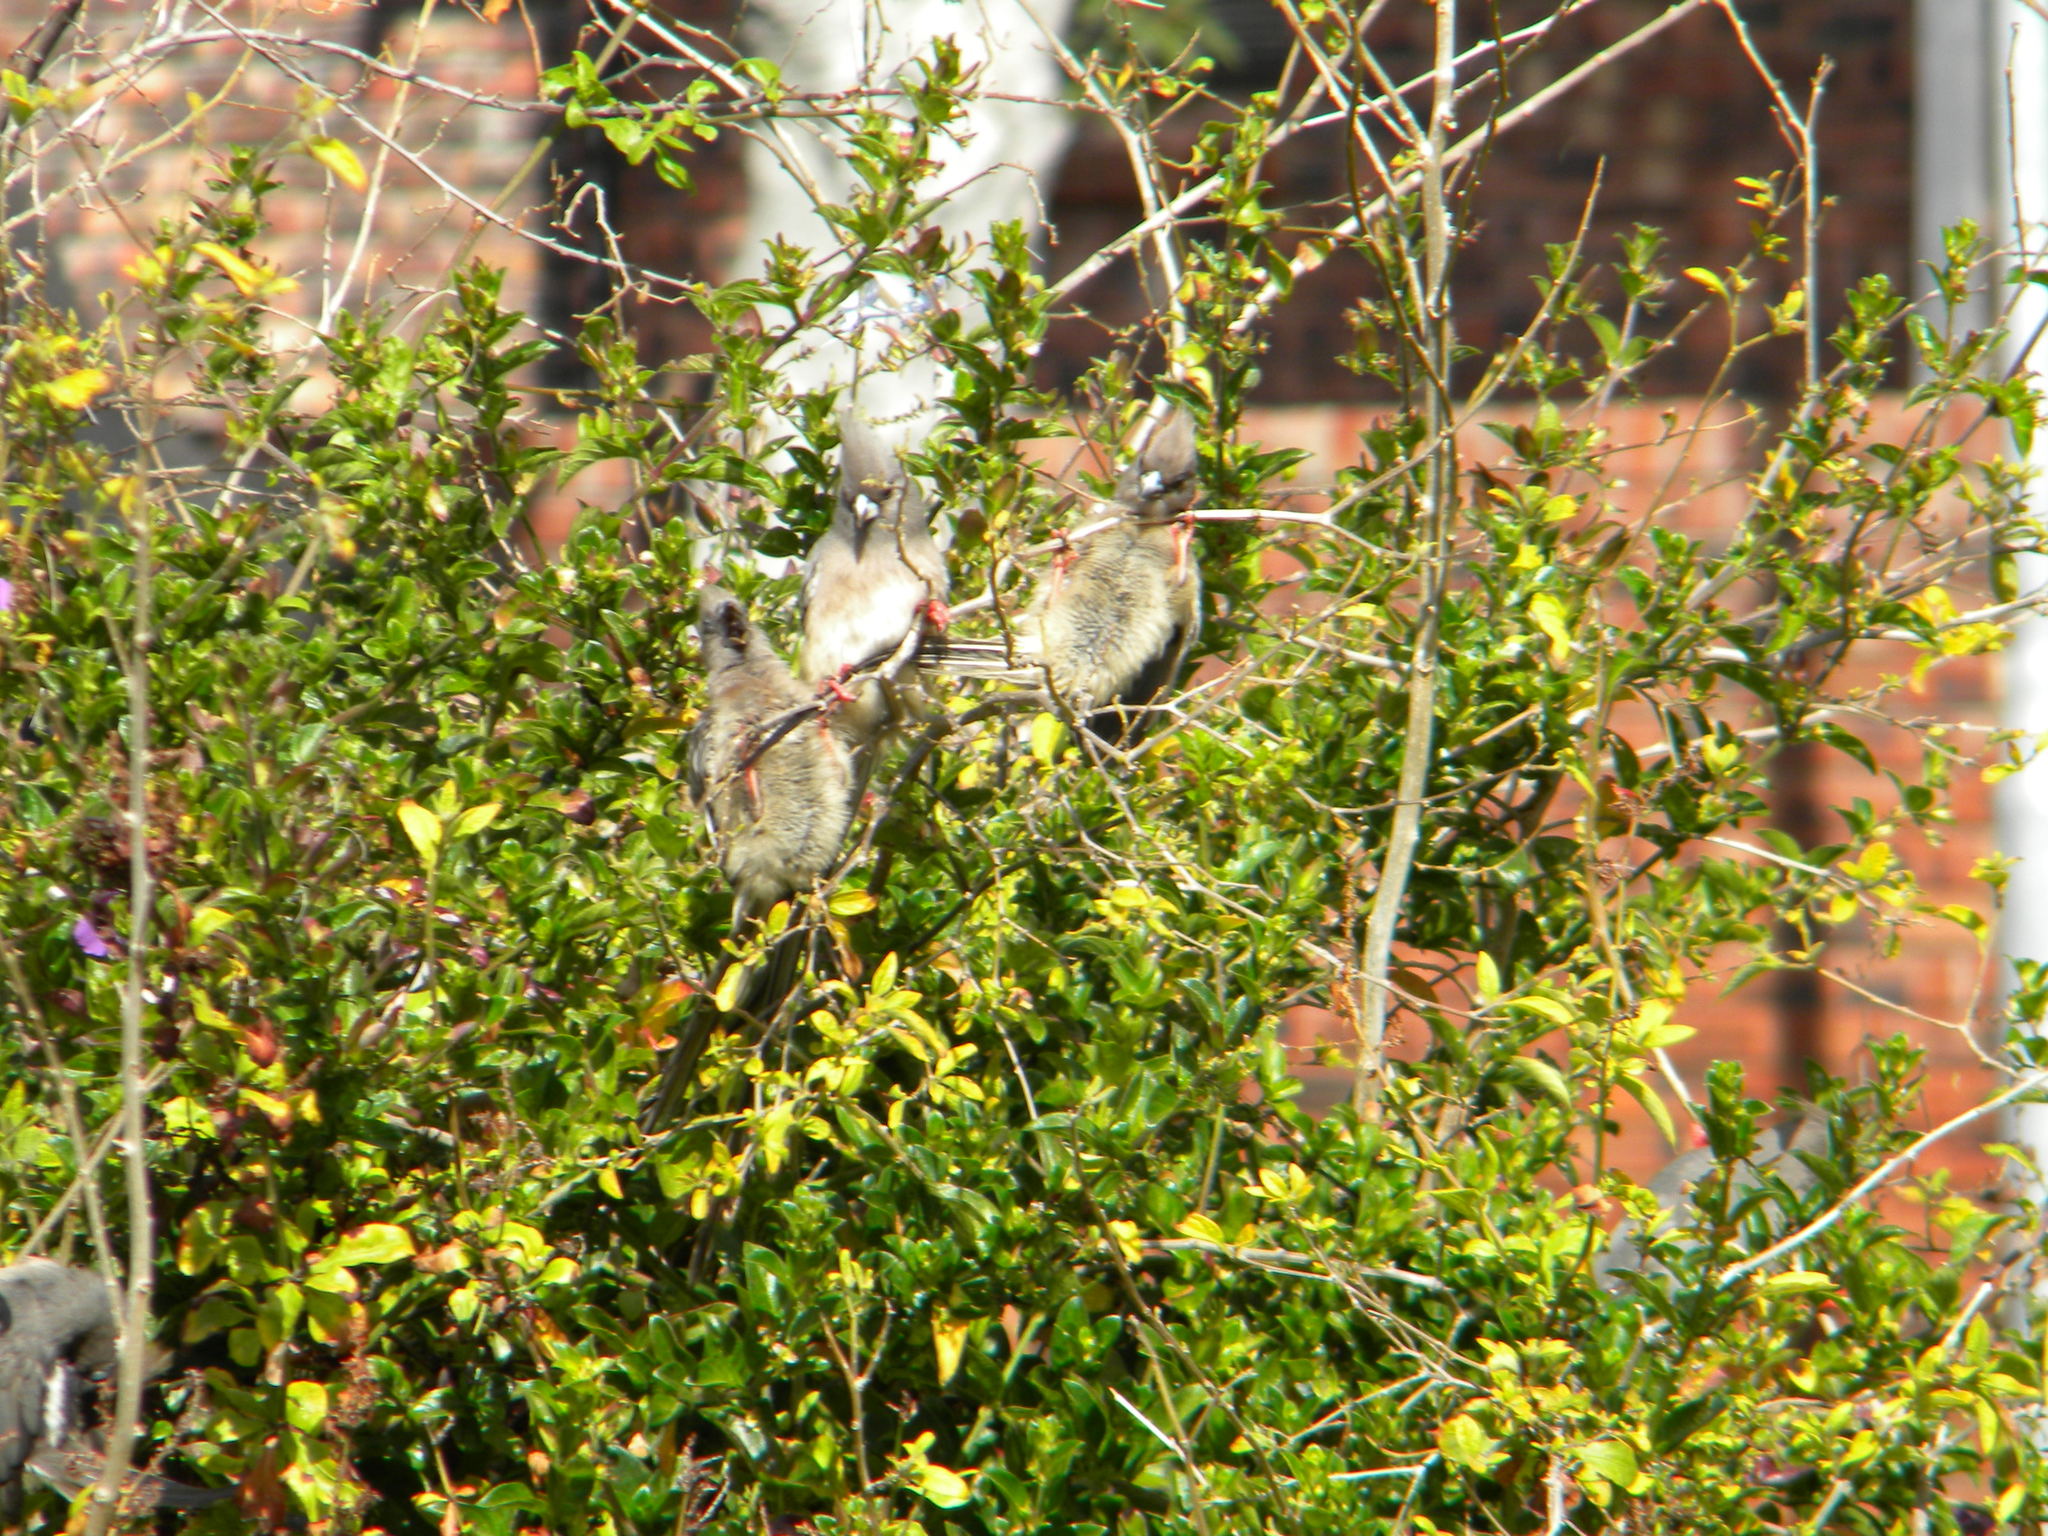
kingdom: Animalia
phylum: Chordata
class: Aves
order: Coliiformes
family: Coliidae
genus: Colius
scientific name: Colius colius
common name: White-backed mousebird
